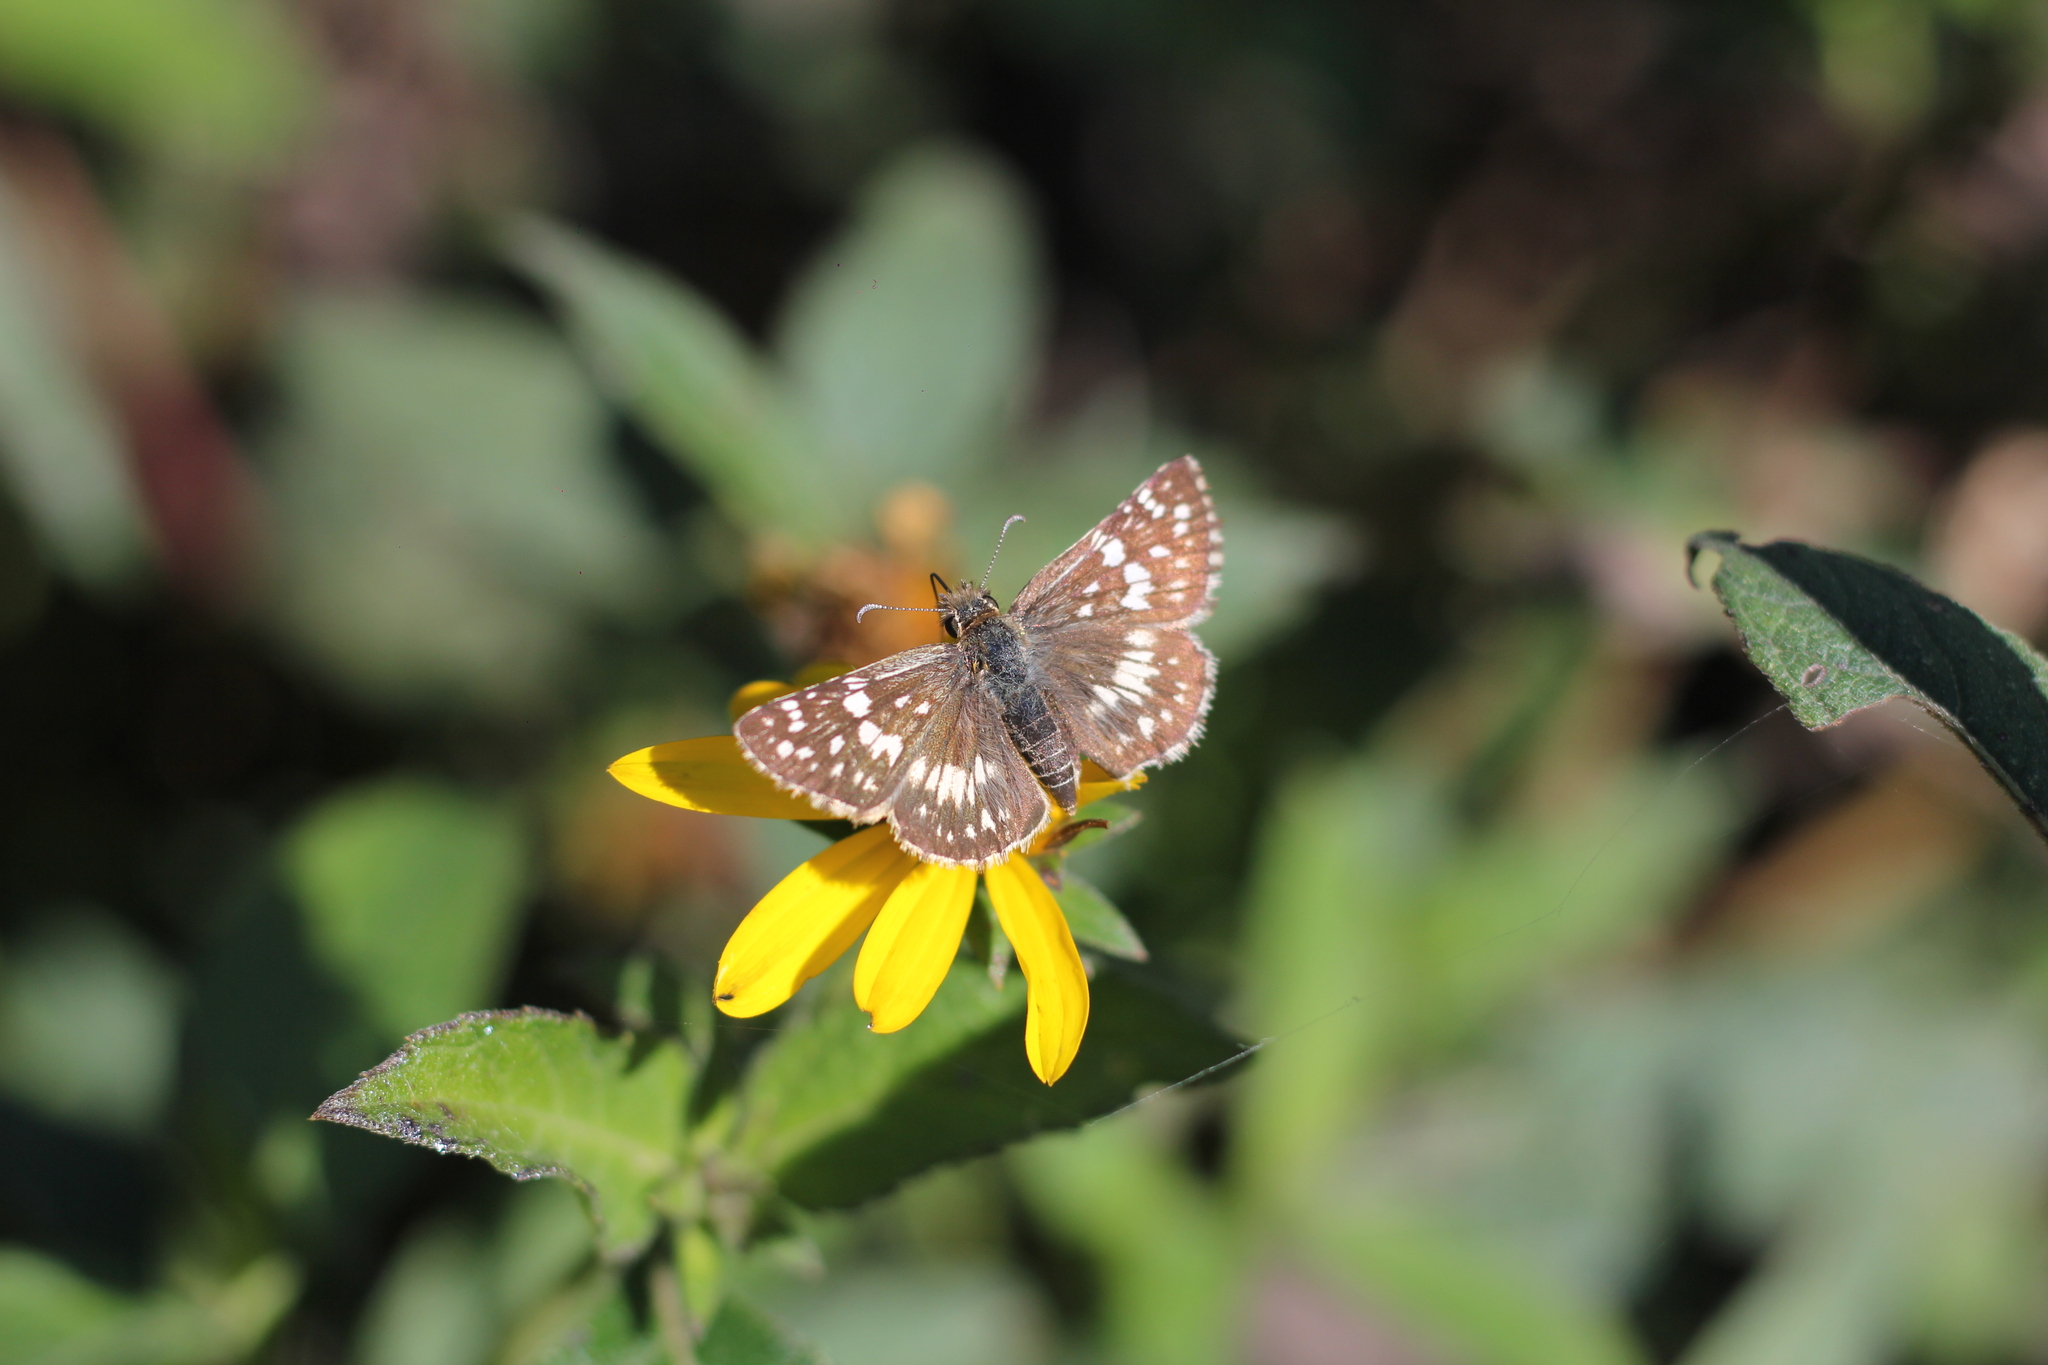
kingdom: Animalia
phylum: Arthropoda
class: Insecta
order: Lepidoptera
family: Hesperiidae
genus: Burnsius
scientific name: Burnsius orcynoides
